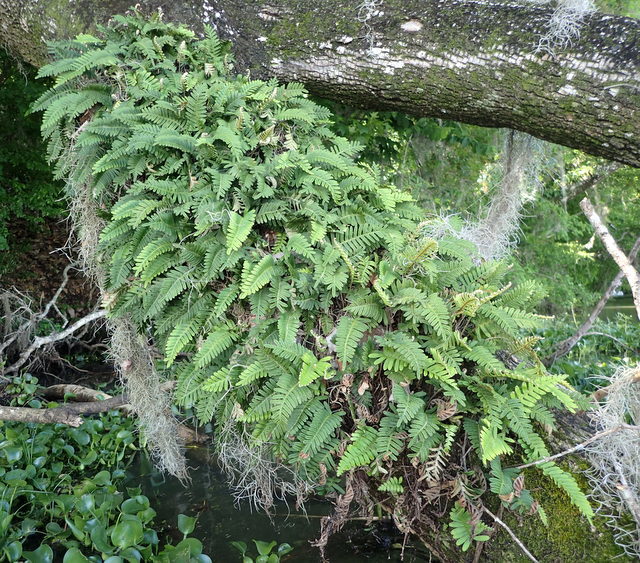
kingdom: Plantae
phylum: Tracheophyta
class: Polypodiopsida
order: Polypodiales
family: Polypodiaceae
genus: Pleopeltis
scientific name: Pleopeltis michauxiana
